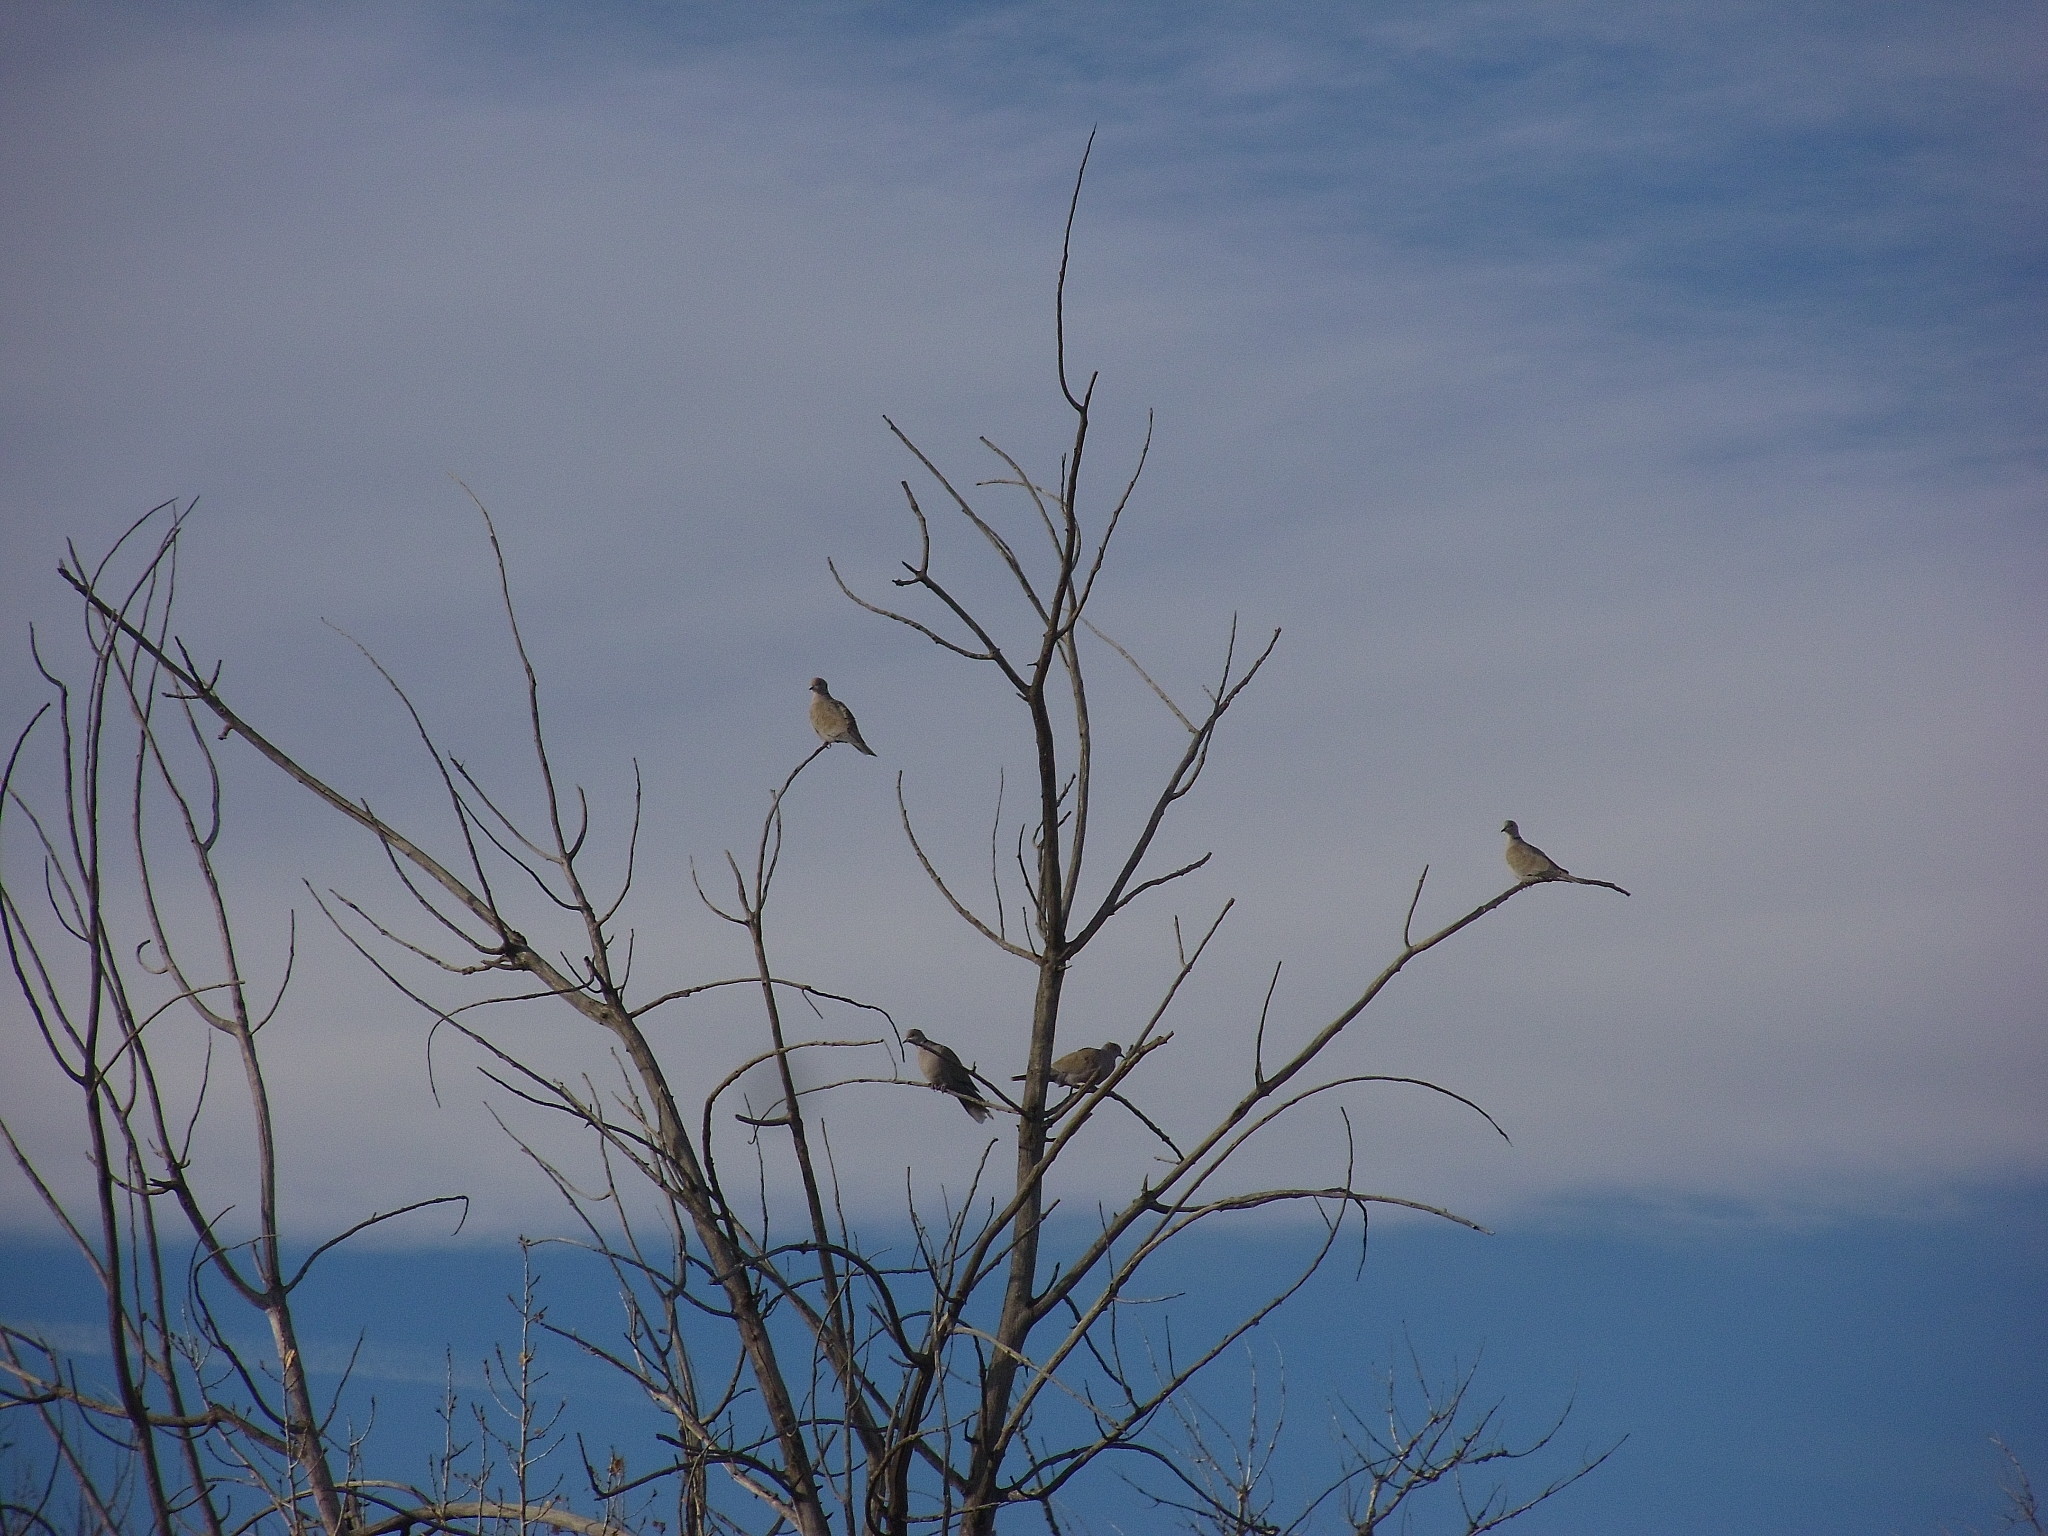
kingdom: Animalia
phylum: Chordata
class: Aves
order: Columbiformes
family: Columbidae
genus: Streptopelia
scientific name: Streptopelia decaocto
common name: Eurasian collared dove
